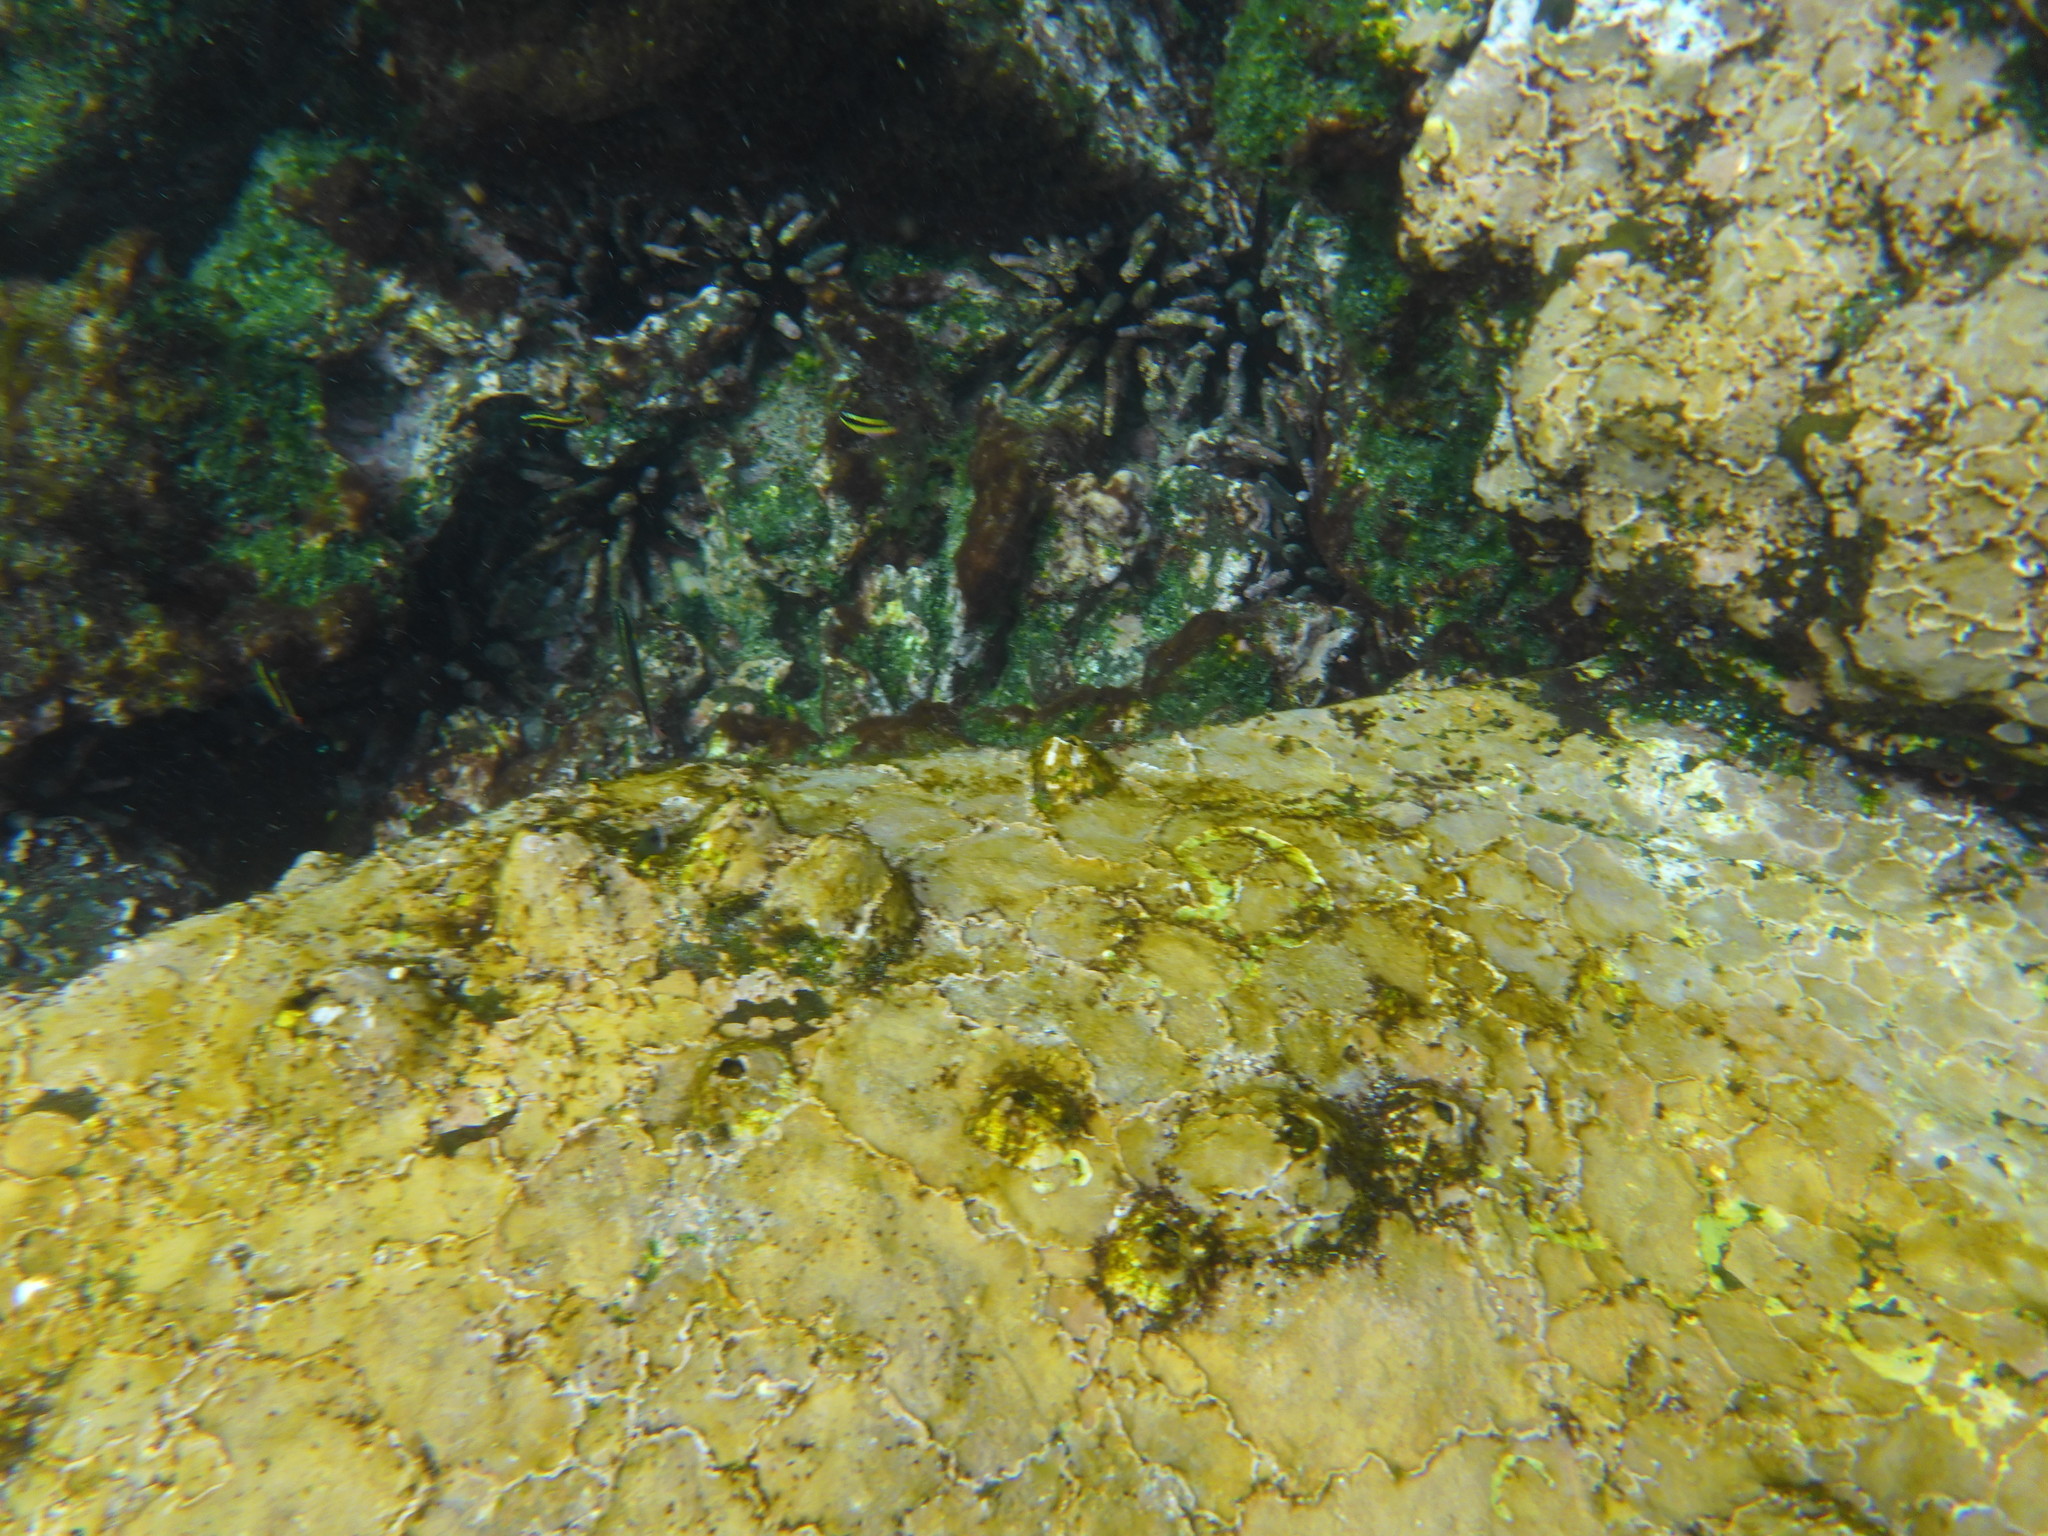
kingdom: Animalia
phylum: Chordata
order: Perciformes
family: Labridae
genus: Thalassoma
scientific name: Thalassoma lucasanum
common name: Cortez rainbow wrasse
